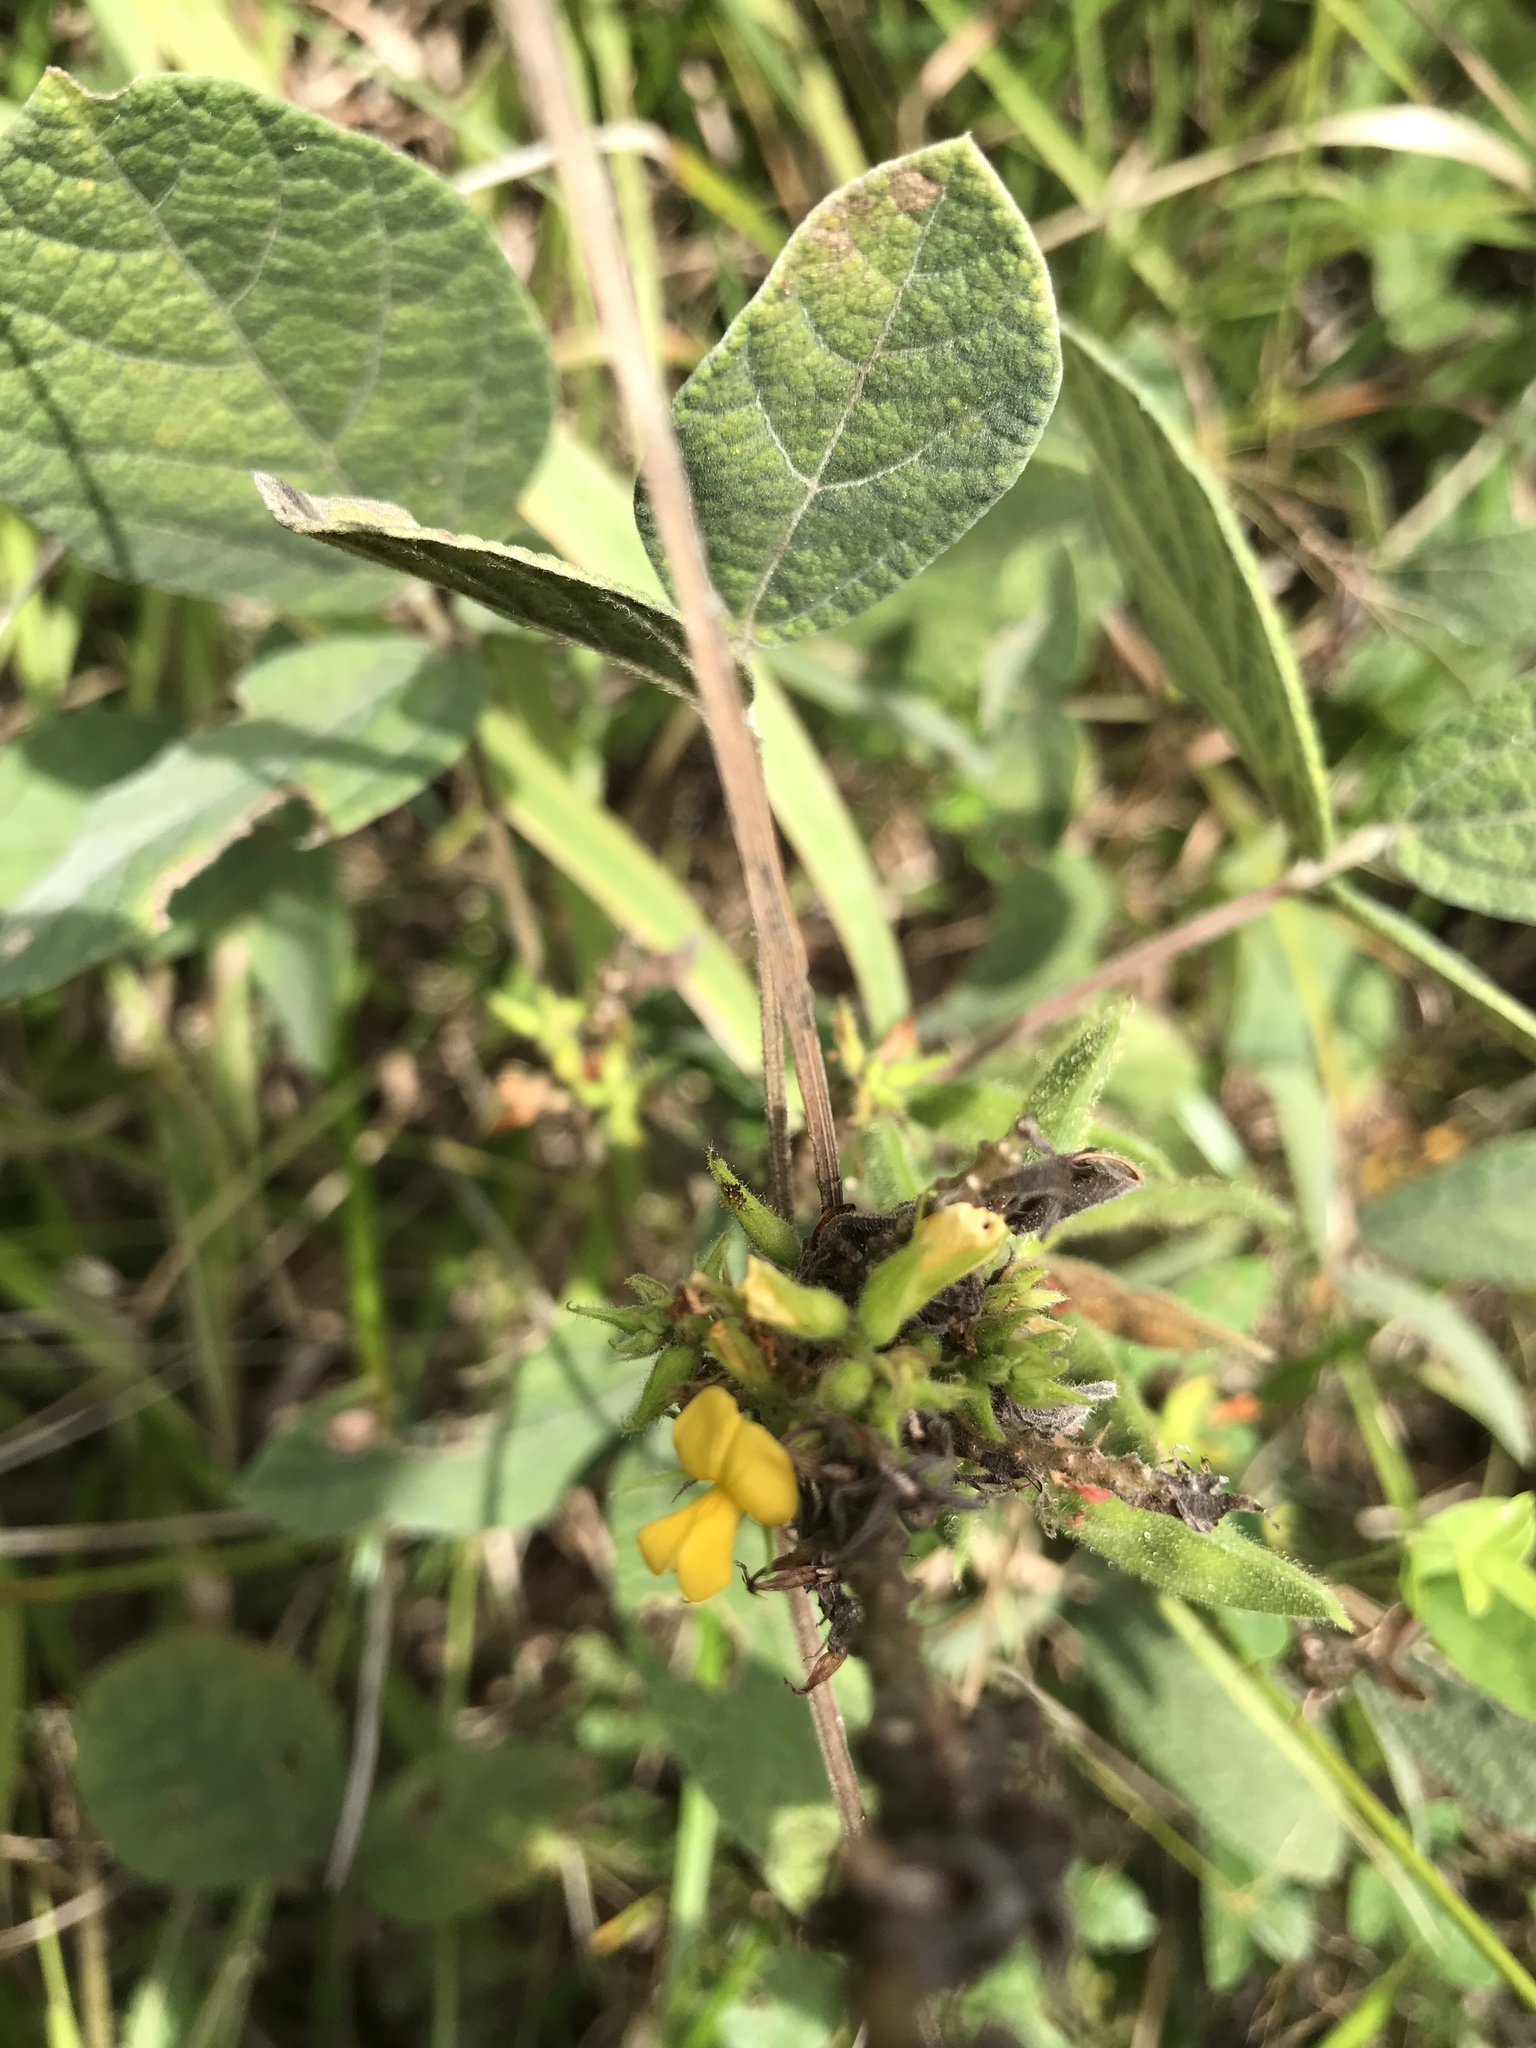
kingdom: Plantae
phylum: Tracheophyta
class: Magnoliopsida
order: Fabales
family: Fabaceae
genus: Rhynchosia
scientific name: Rhynchosia tomentosa
